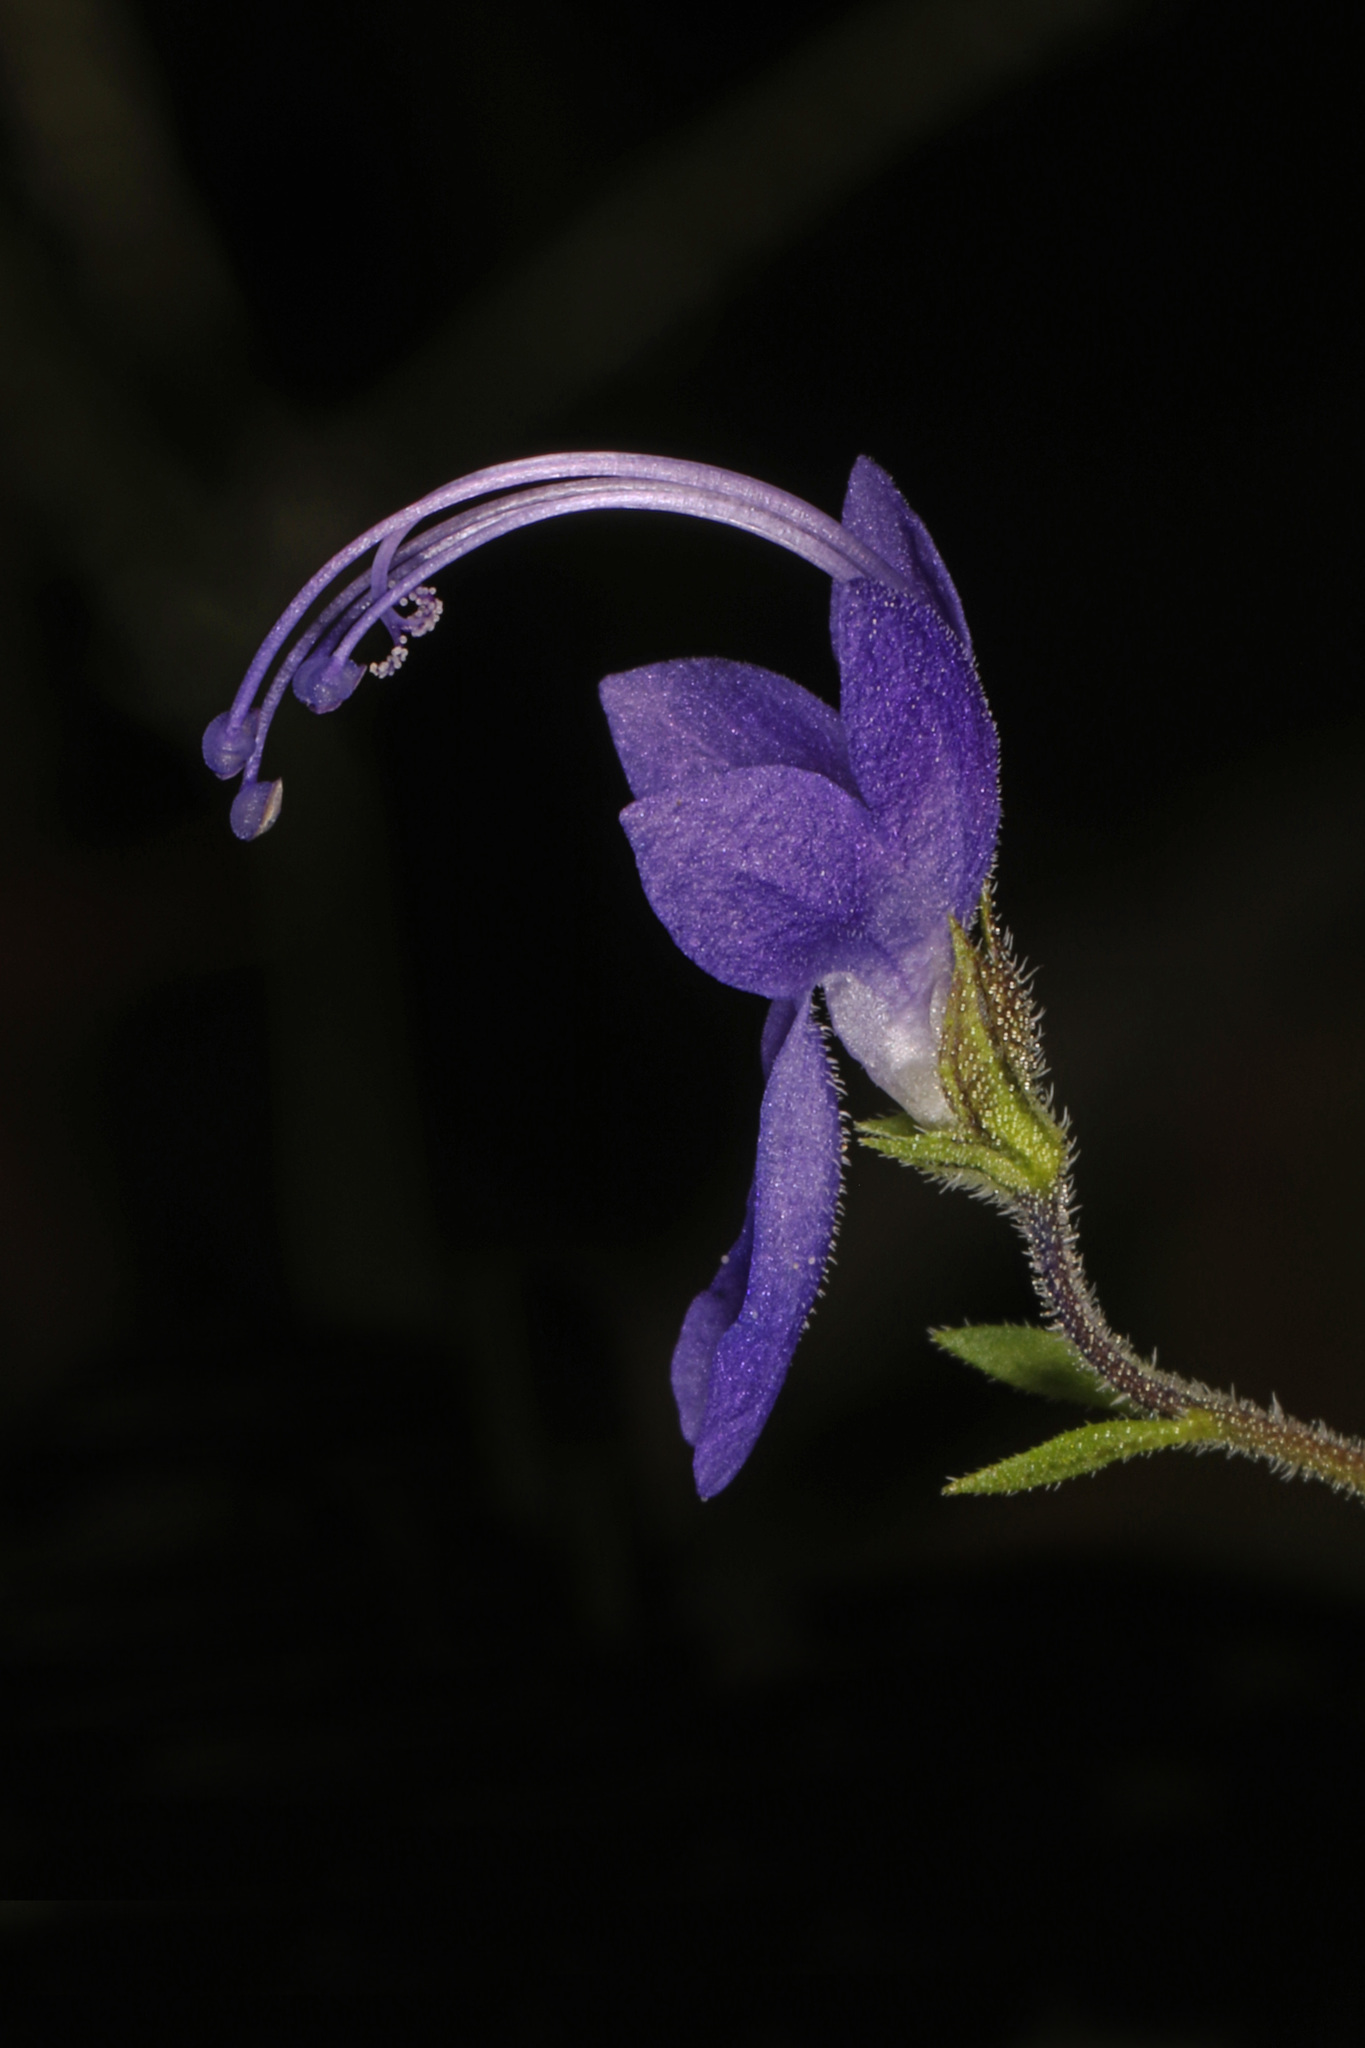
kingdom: Plantae
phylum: Tracheophyta
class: Magnoliopsida
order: Lamiales
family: Lamiaceae
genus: Trichostema
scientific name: Trichostema dichotomum
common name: Bastard pennyroyal
